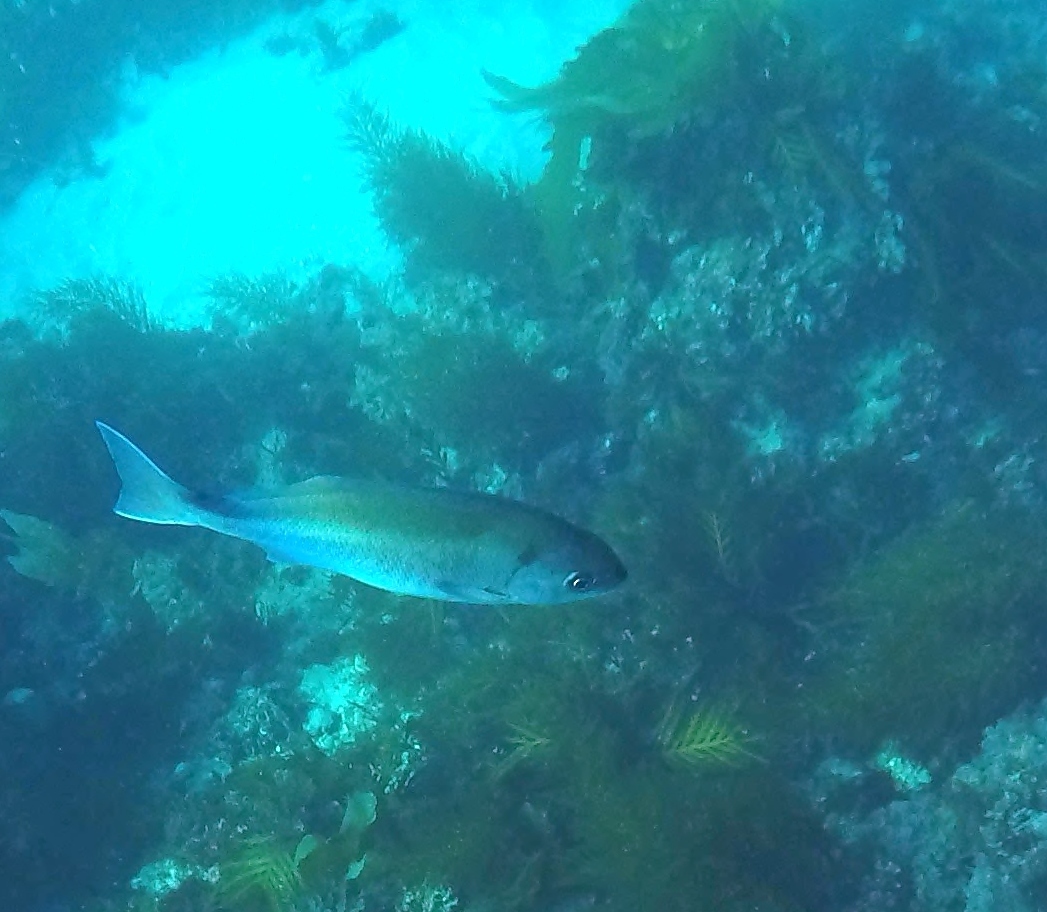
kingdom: Animalia
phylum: Chordata
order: Perciformes
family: Kyphosidae
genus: Medialuna
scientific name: Medialuna californiensis
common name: Halfmoon
